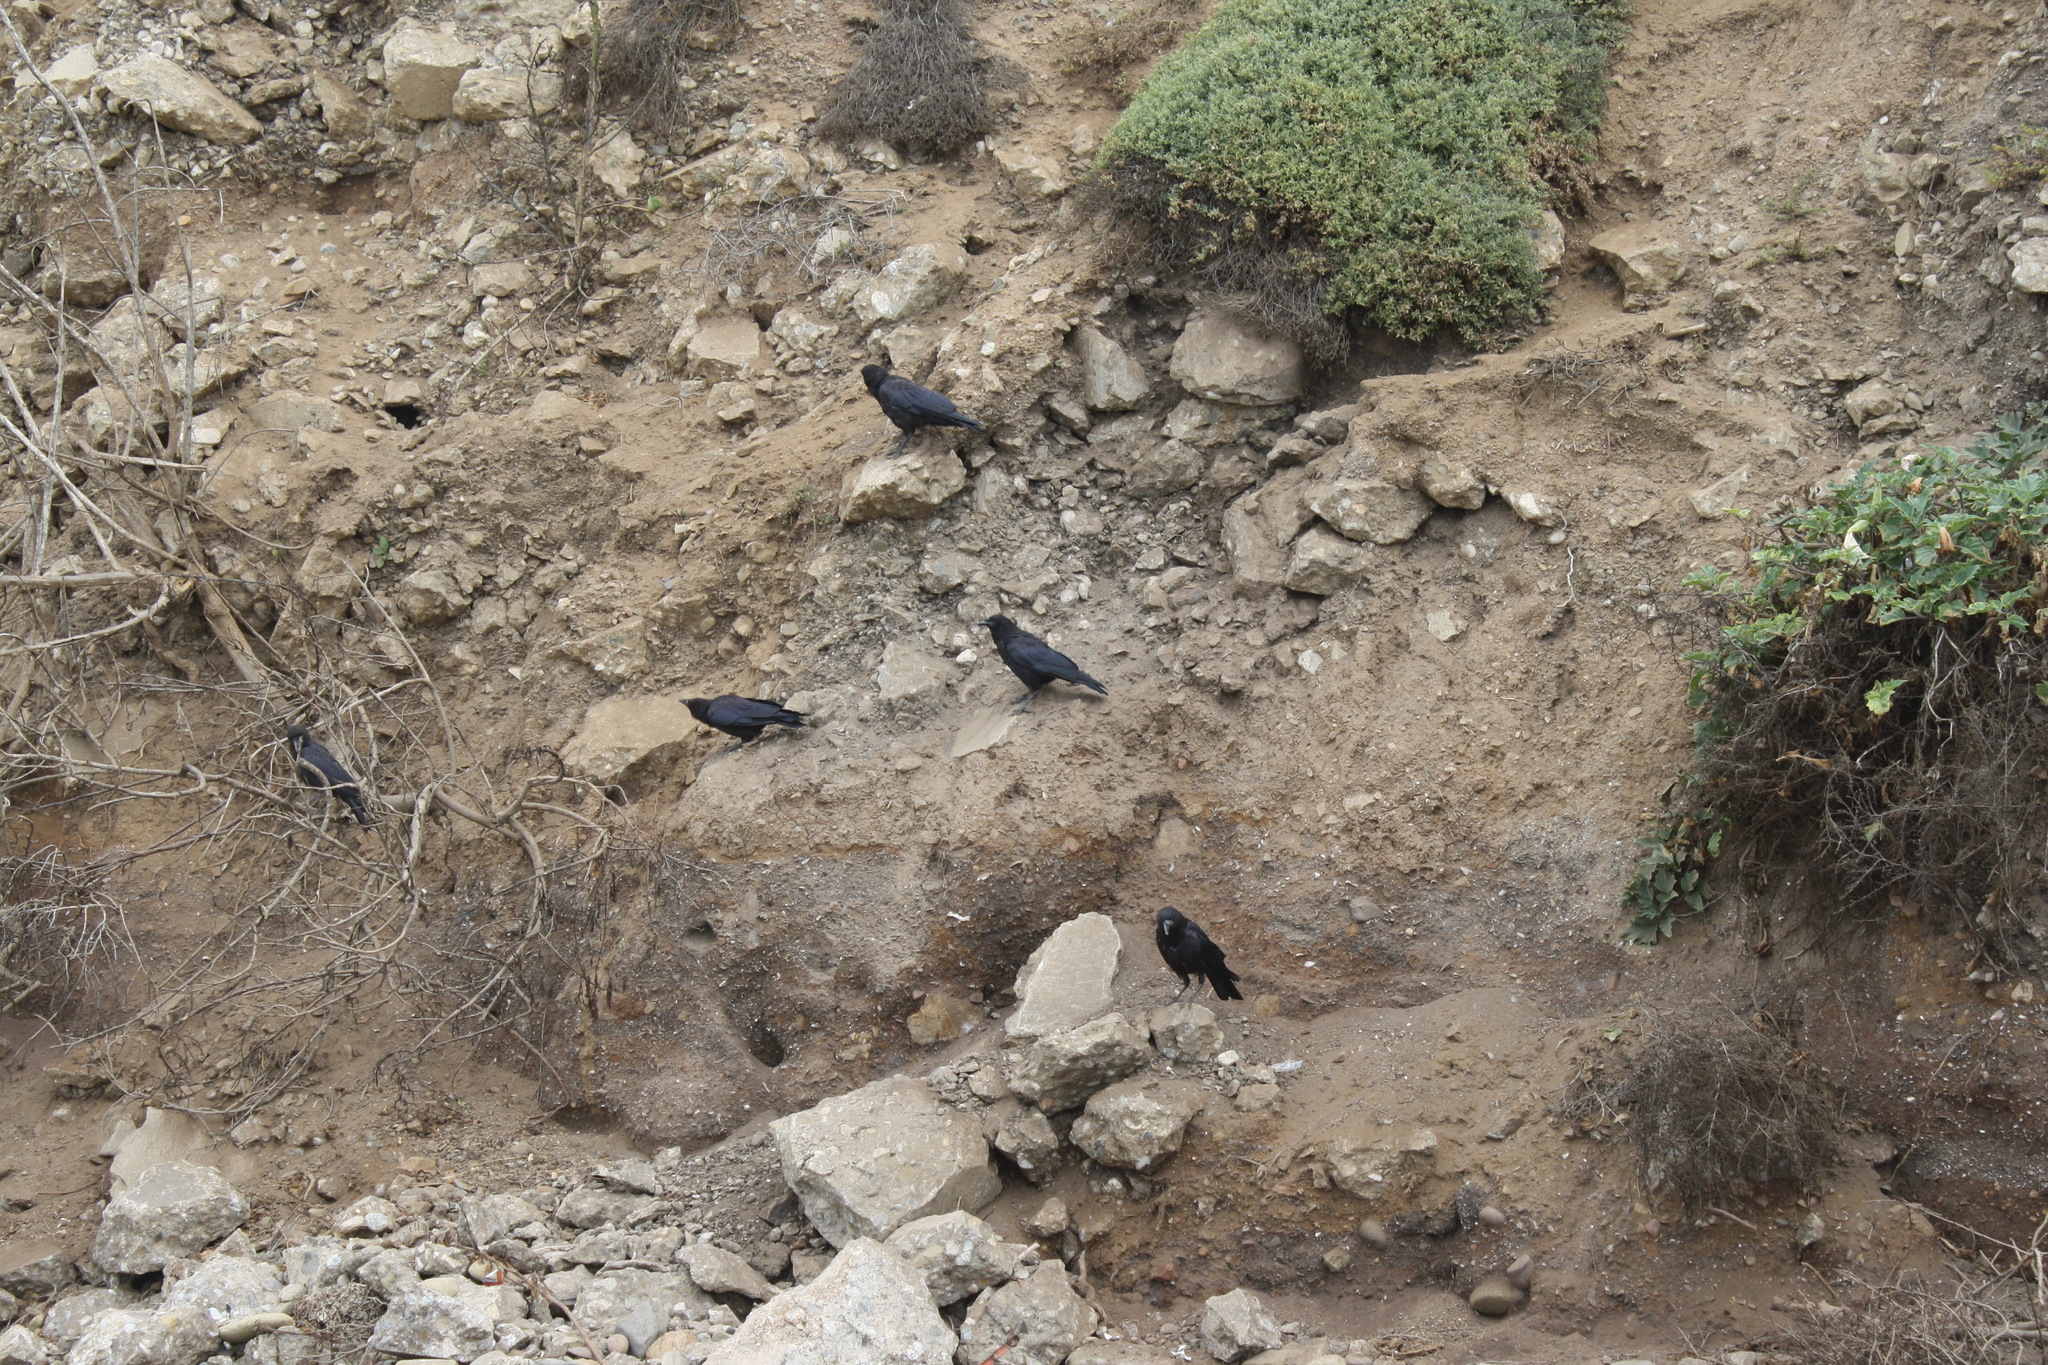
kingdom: Animalia
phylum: Chordata
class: Aves
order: Passeriformes
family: Corvidae
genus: Corvus
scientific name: Corvus brachyrhynchos
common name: American crow
